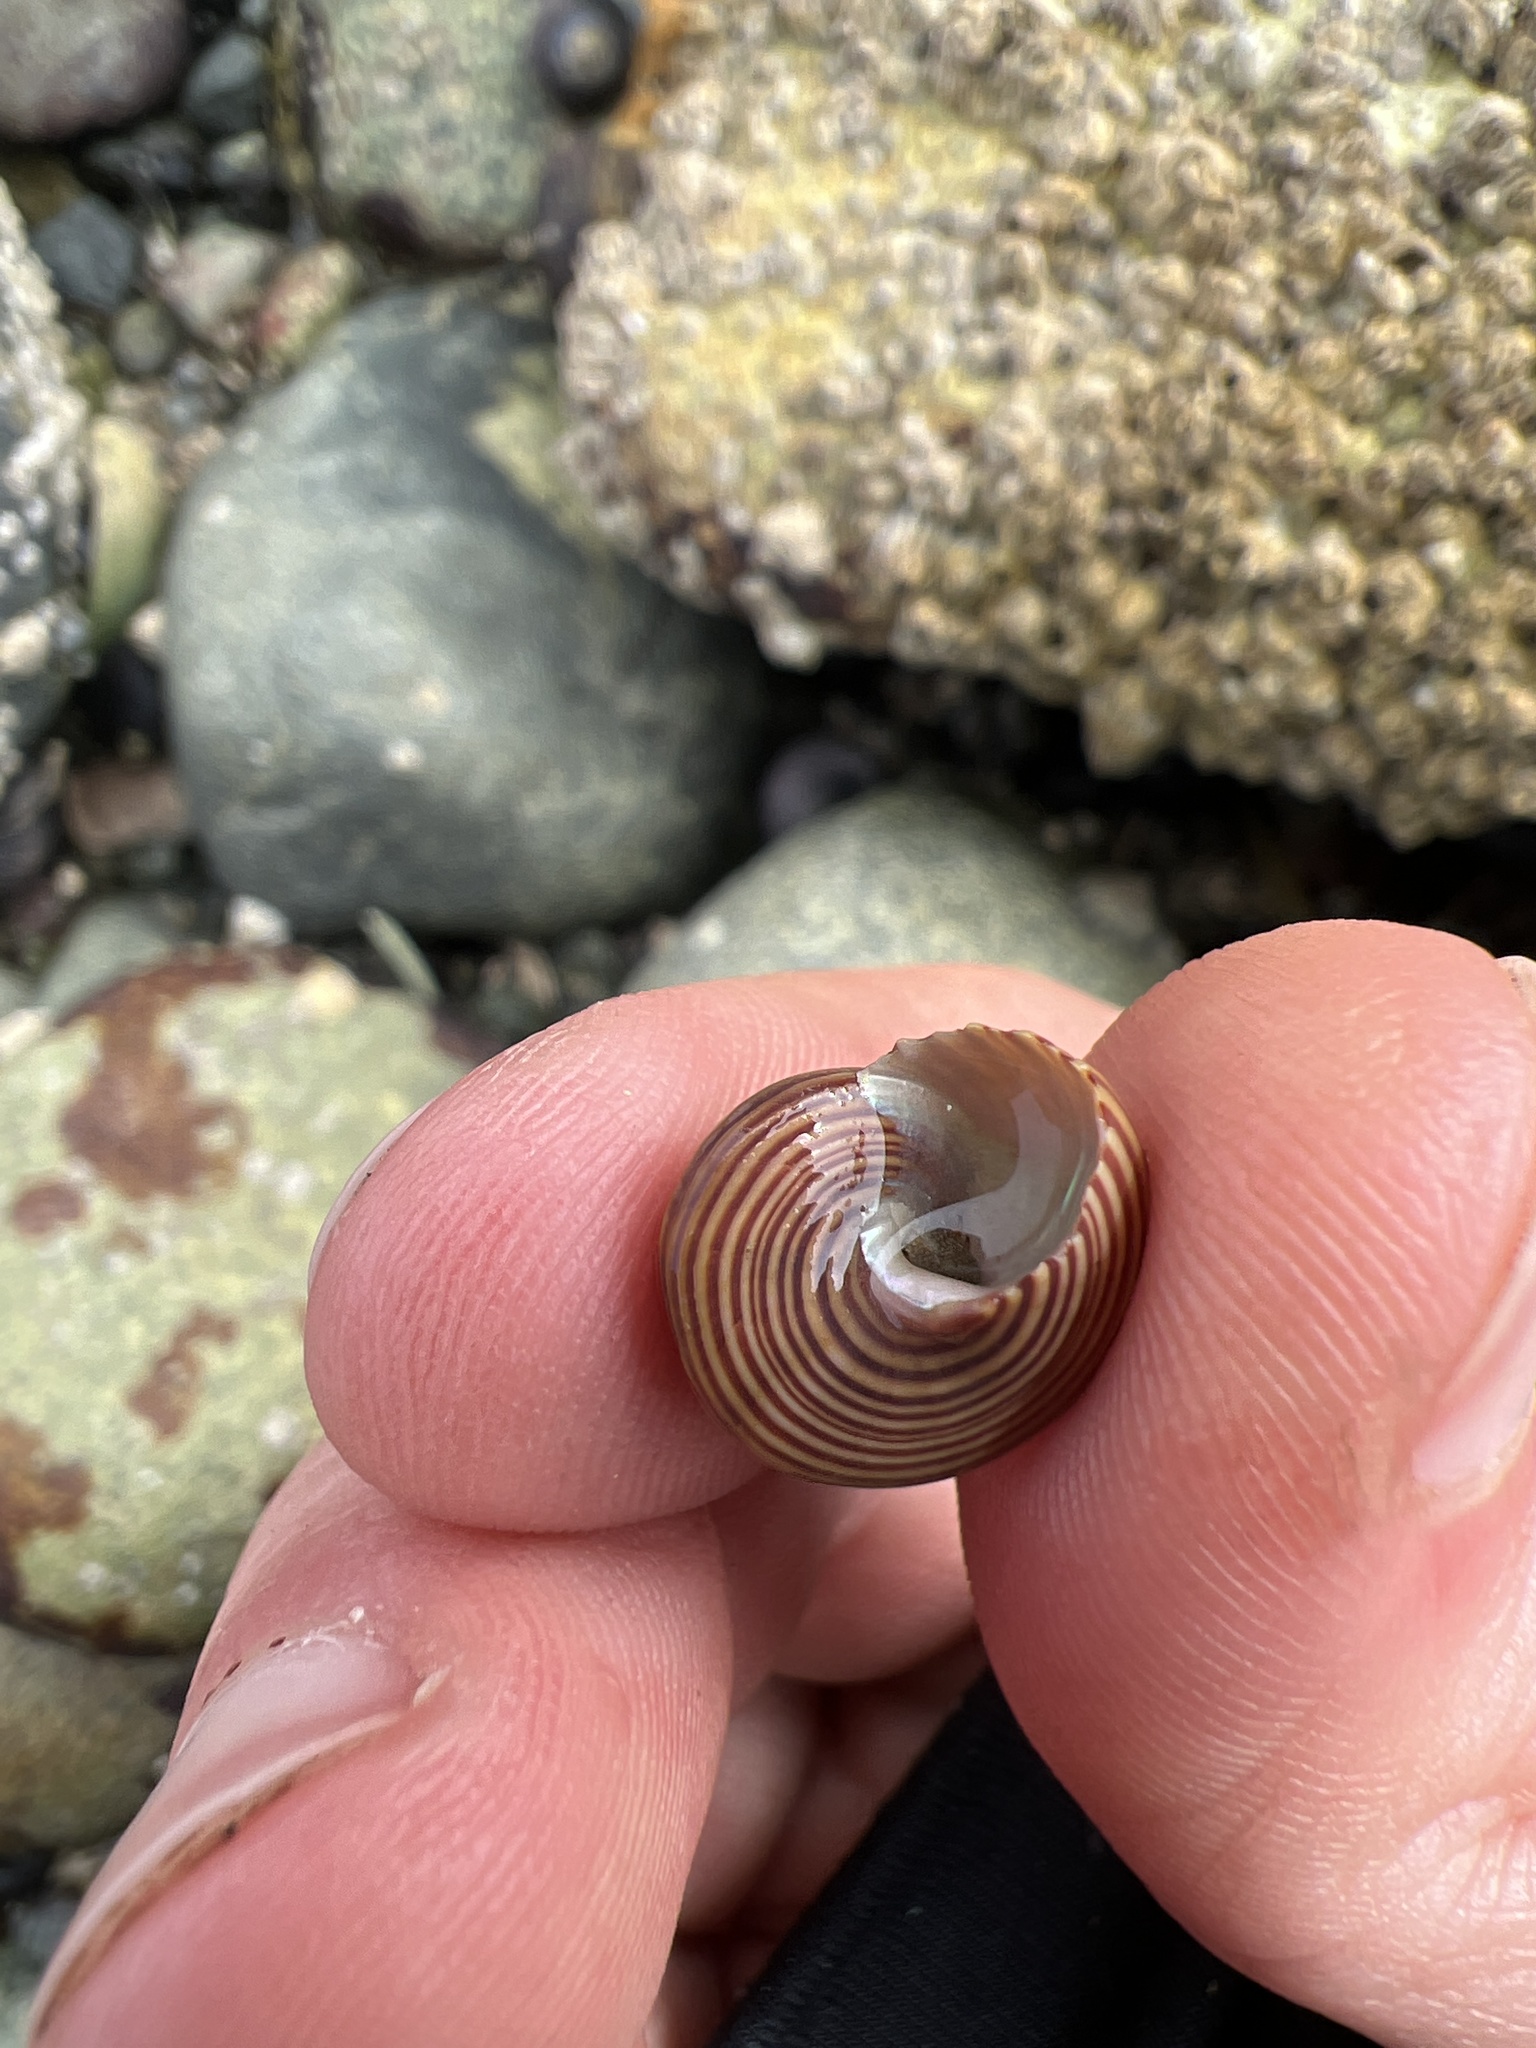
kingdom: Animalia
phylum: Mollusca
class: Gastropoda
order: Trochida
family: Calliostomatidae
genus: Calliostoma
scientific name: Calliostoma ligatum
